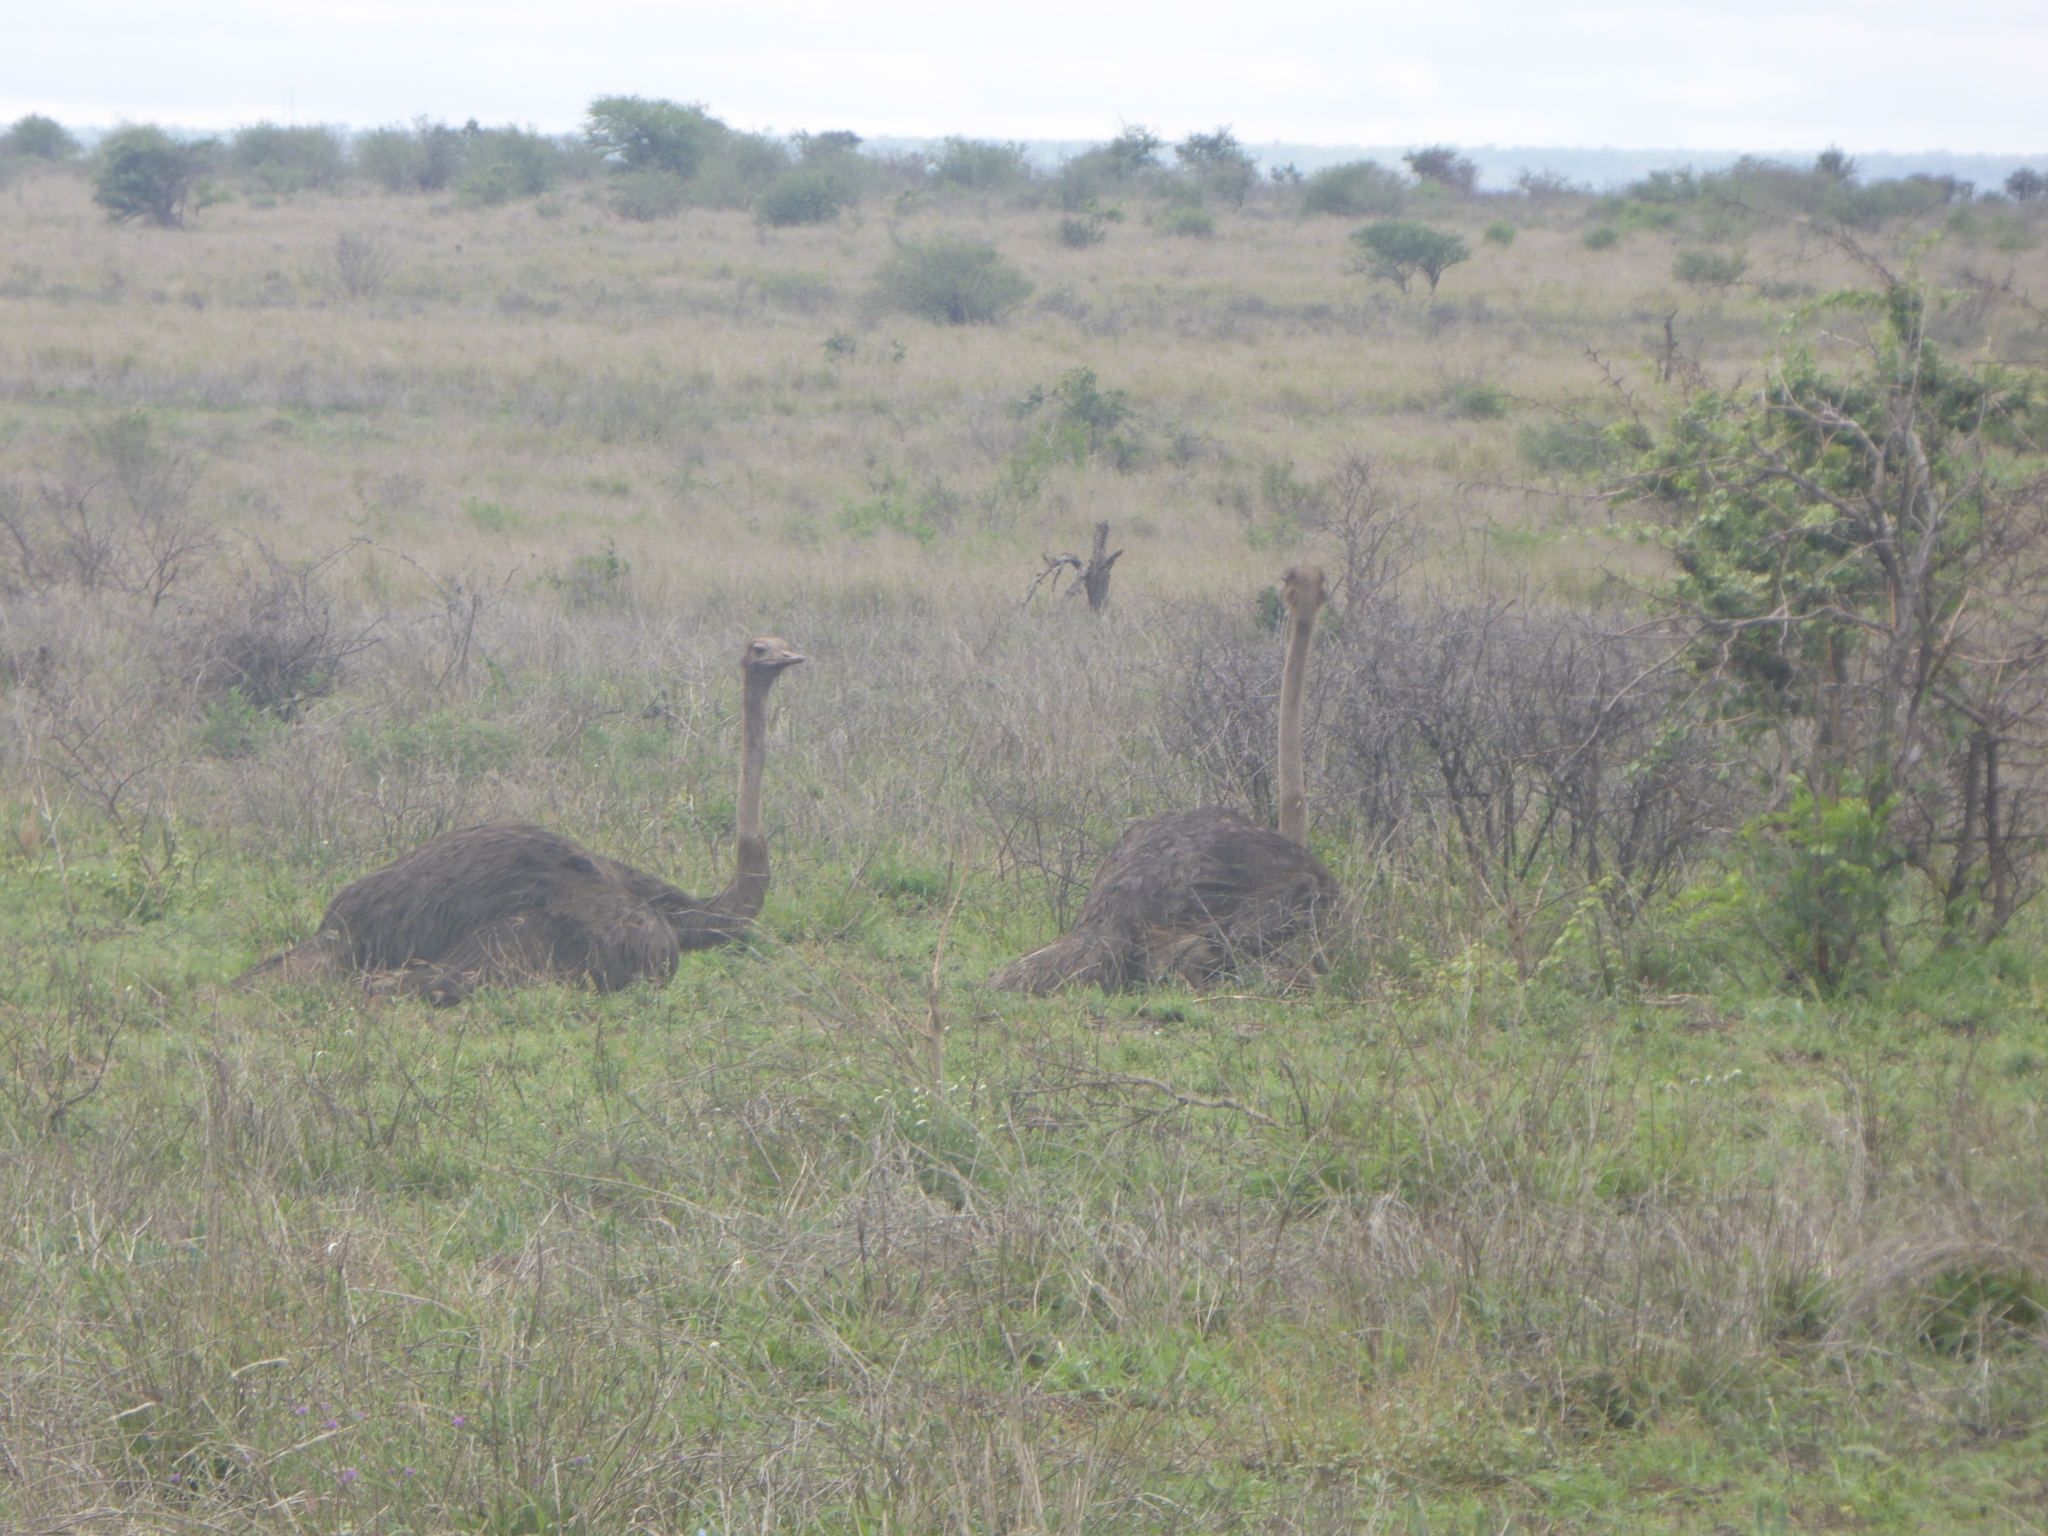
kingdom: Animalia
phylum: Chordata
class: Aves
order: Struthioniformes
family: Struthionidae
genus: Struthio
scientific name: Struthio camelus
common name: Common ostrich
